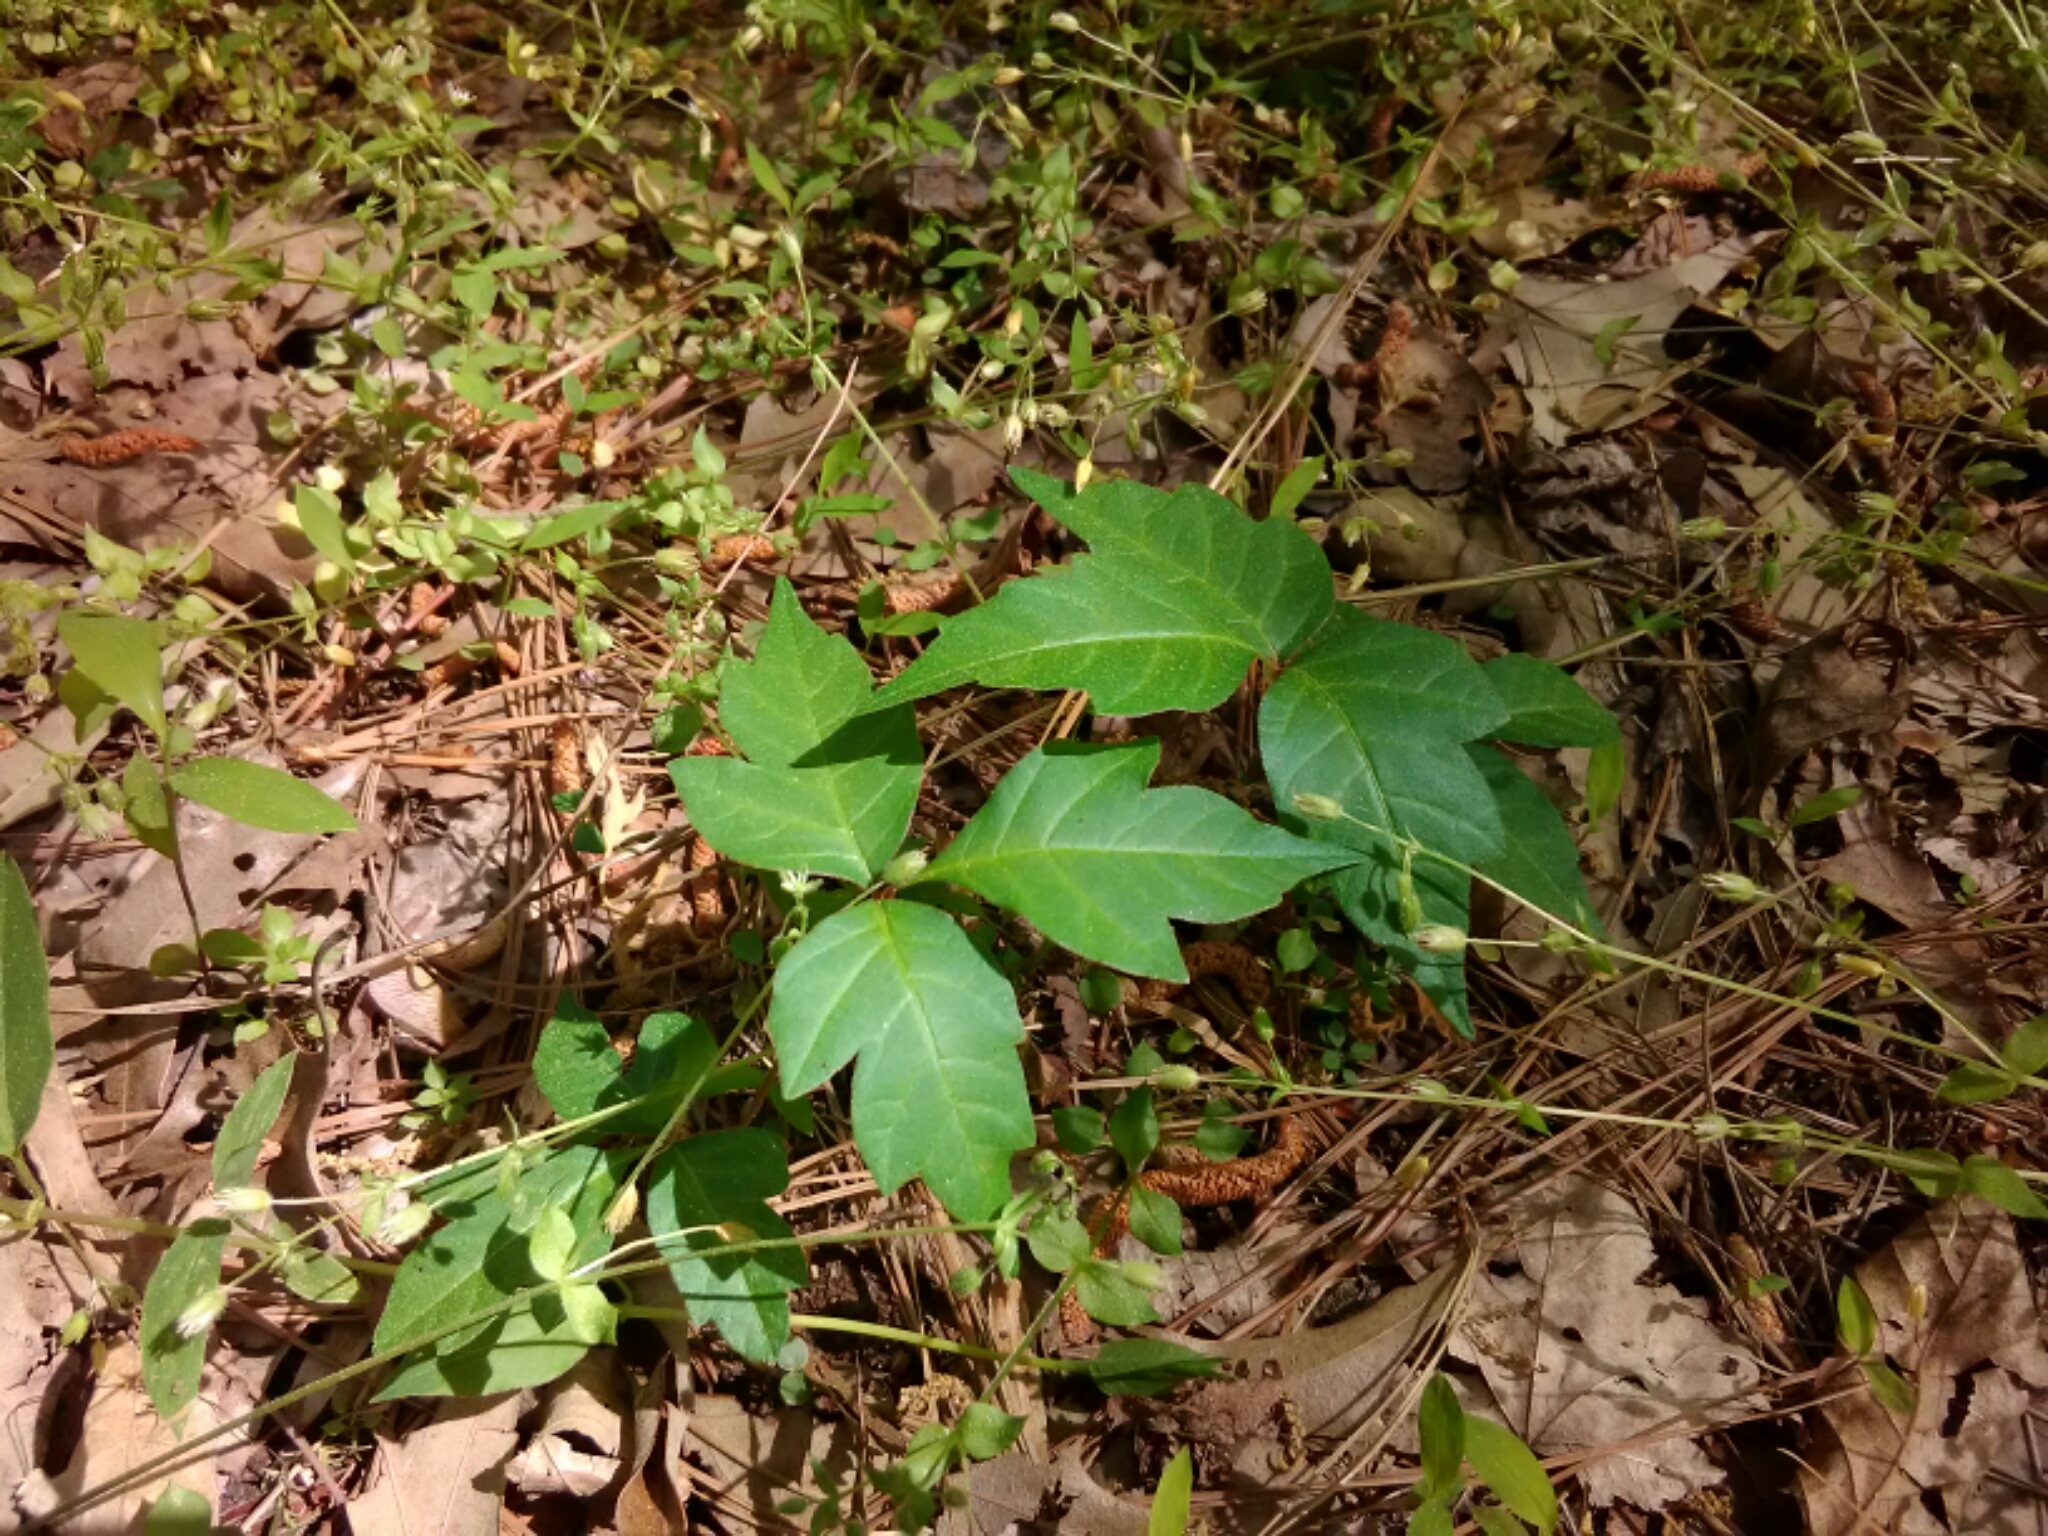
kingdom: Plantae
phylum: Tracheophyta
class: Magnoliopsida
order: Sapindales
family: Anacardiaceae
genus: Toxicodendron
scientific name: Toxicodendron radicans
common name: Poison ivy
